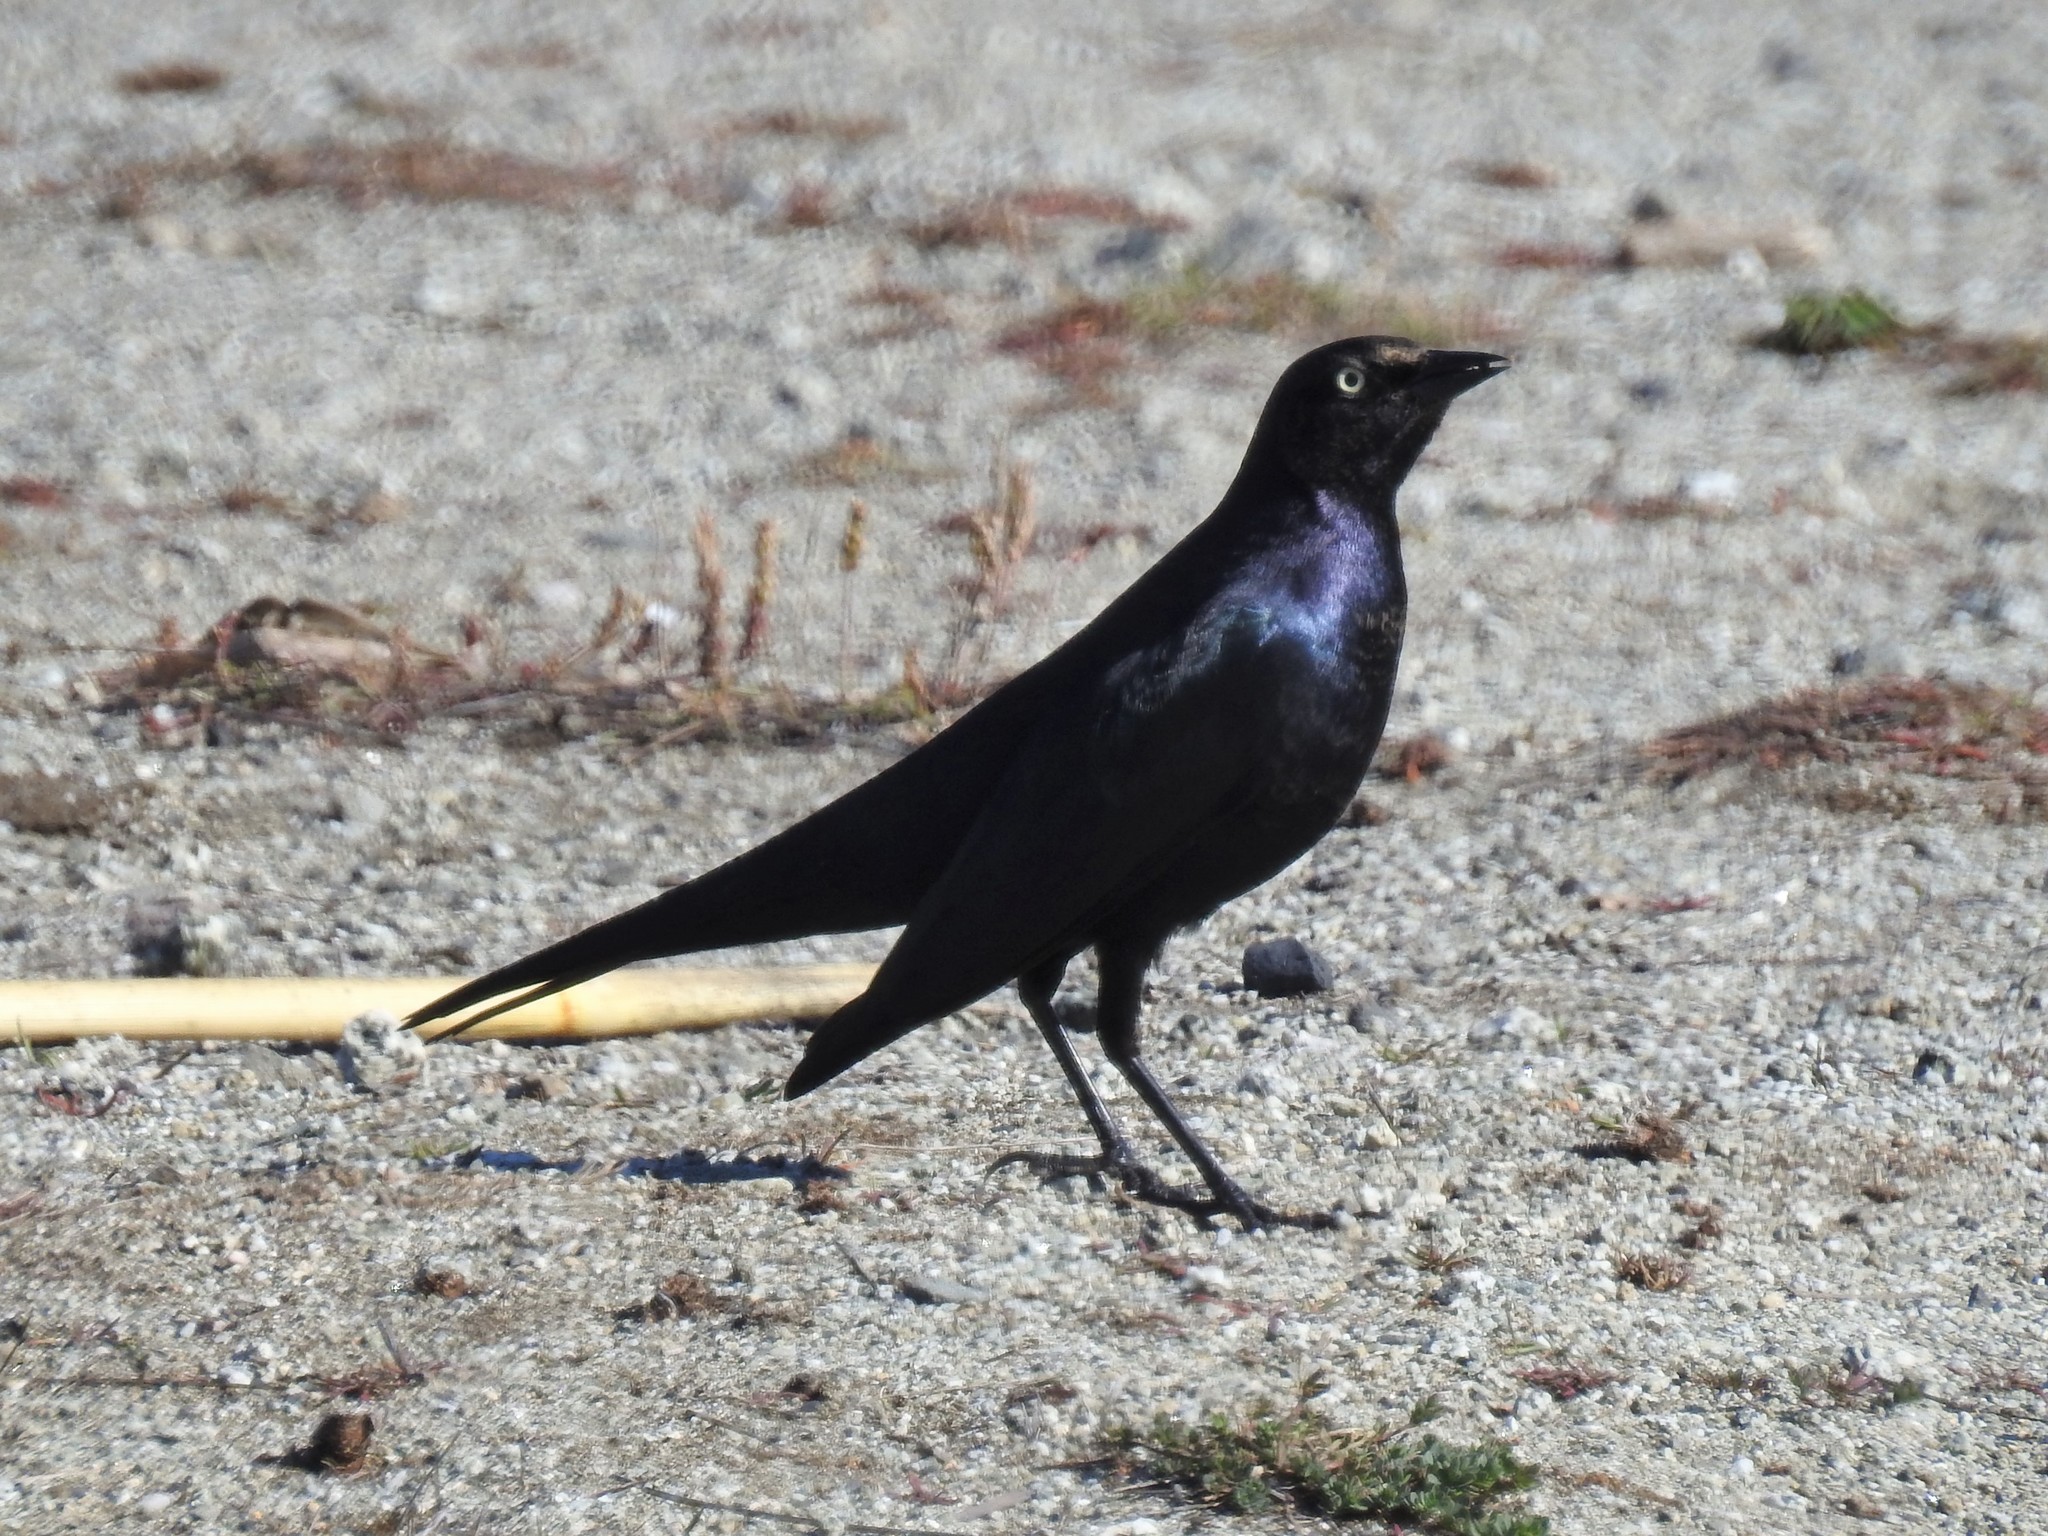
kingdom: Animalia
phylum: Chordata
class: Aves
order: Passeriformes
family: Icteridae
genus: Euphagus
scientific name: Euphagus cyanocephalus
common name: Brewer's blackbird
